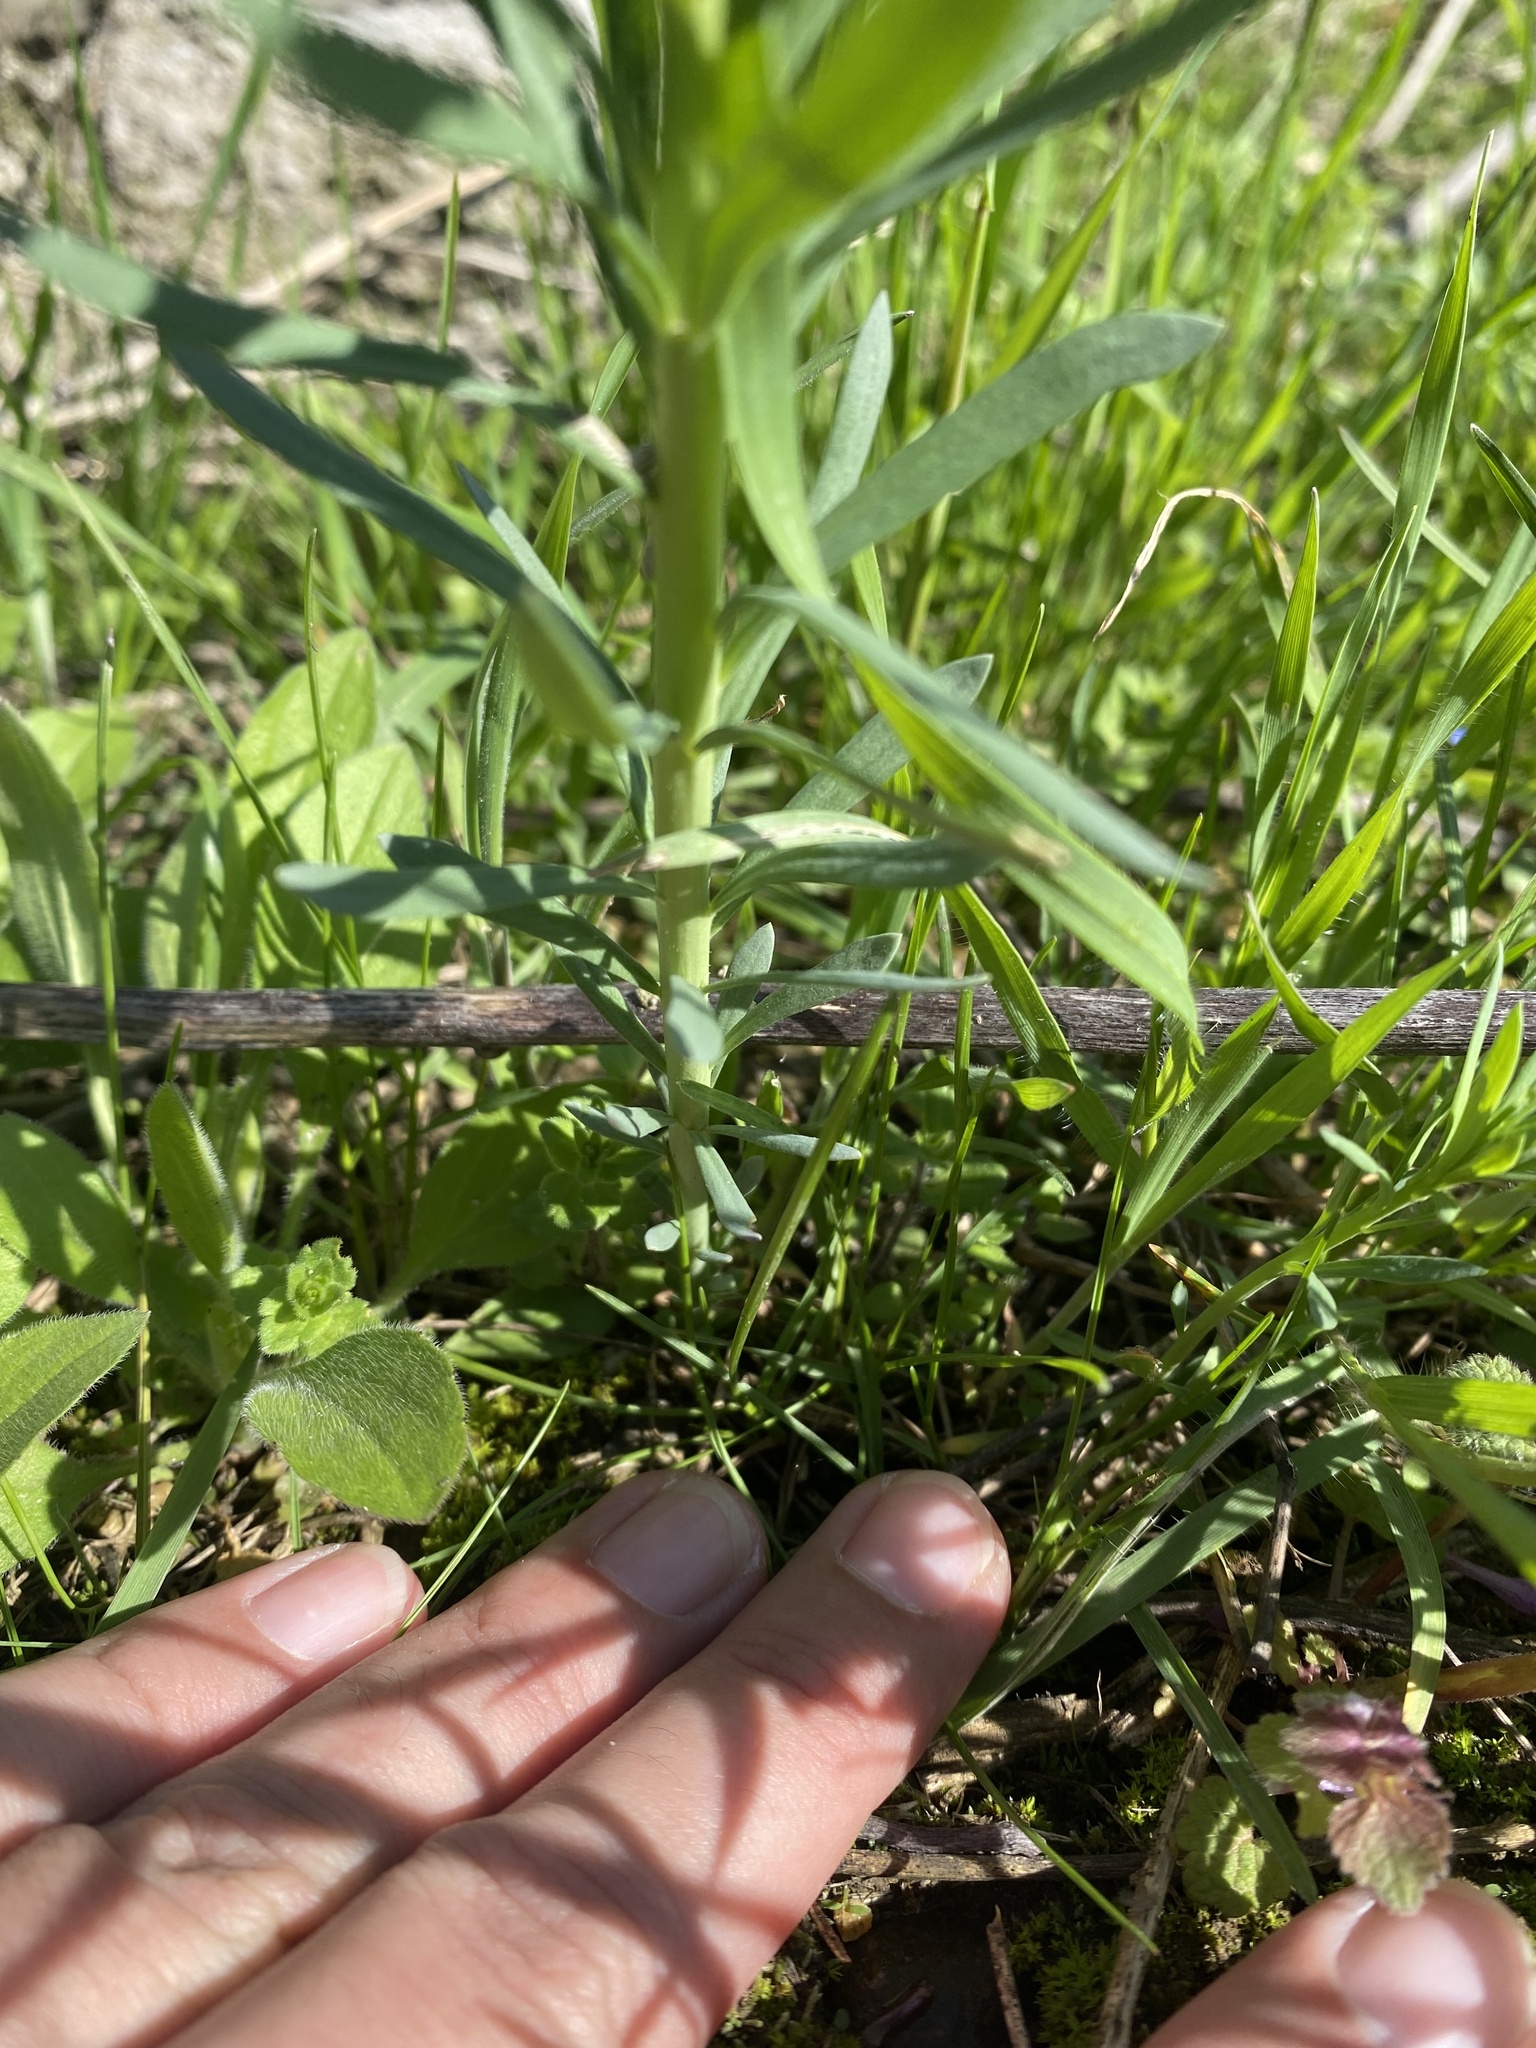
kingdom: Plantae
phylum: Tracheophyta
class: Magnoliopsida
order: Lamiales
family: Plantaginaceae
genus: Linaria
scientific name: Linaria vulgaris
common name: Butter and eggs
